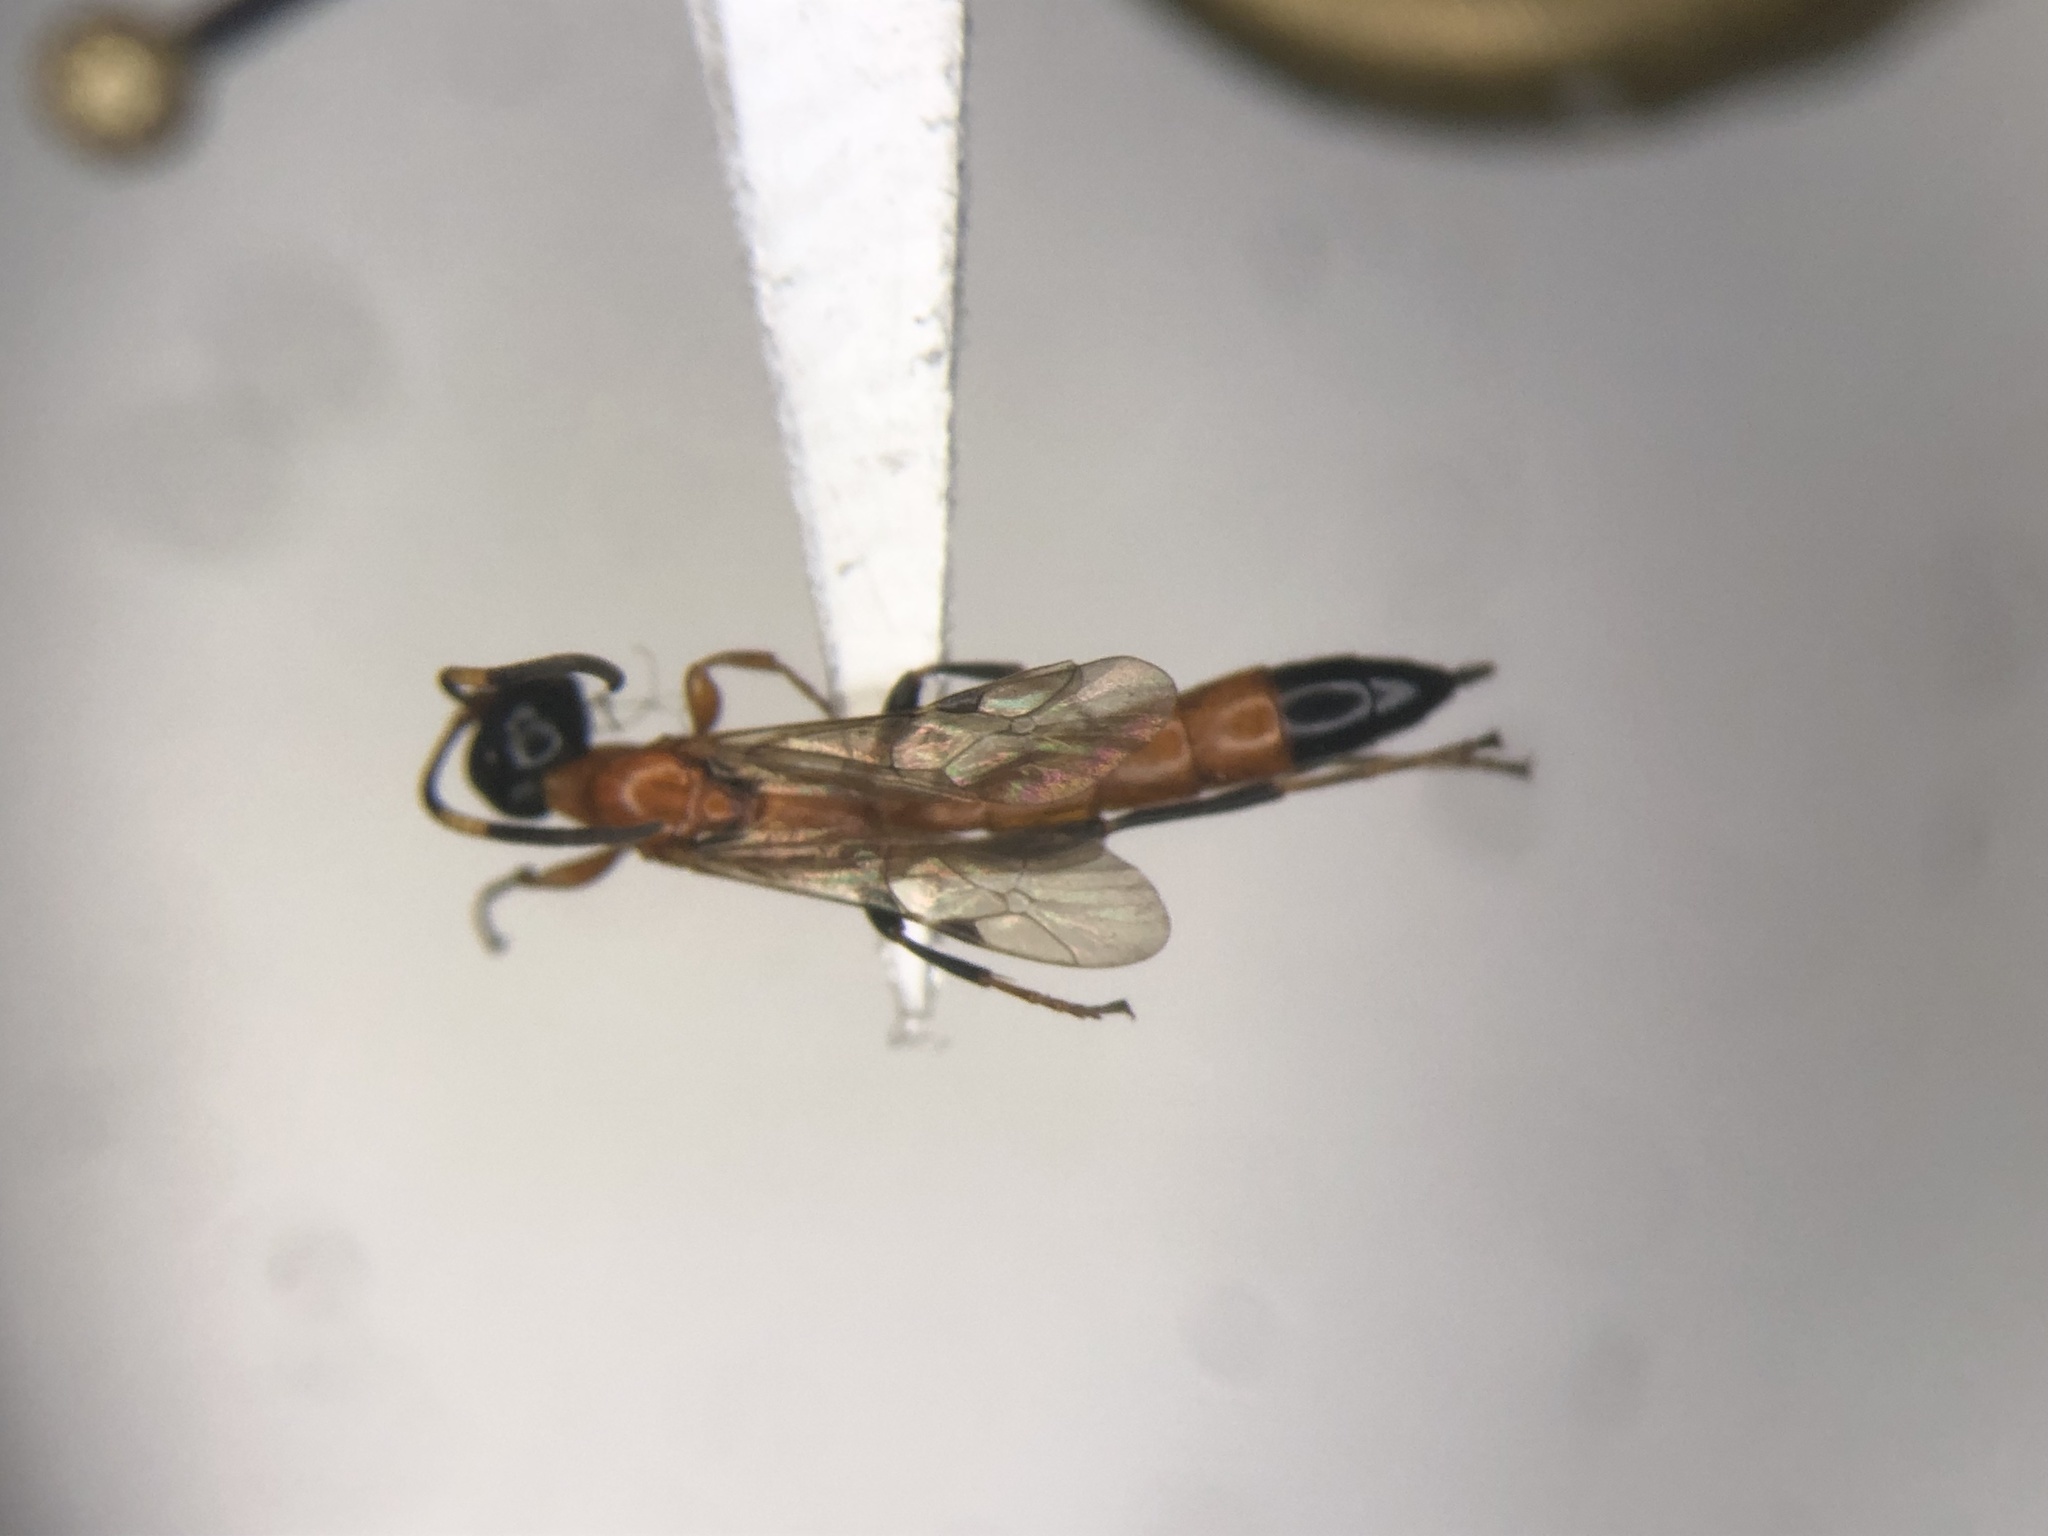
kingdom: Animalia
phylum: Arthropoda
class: Insecta
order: Hymenoptera
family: Ichneumonidae
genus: Eparces
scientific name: Eparces
